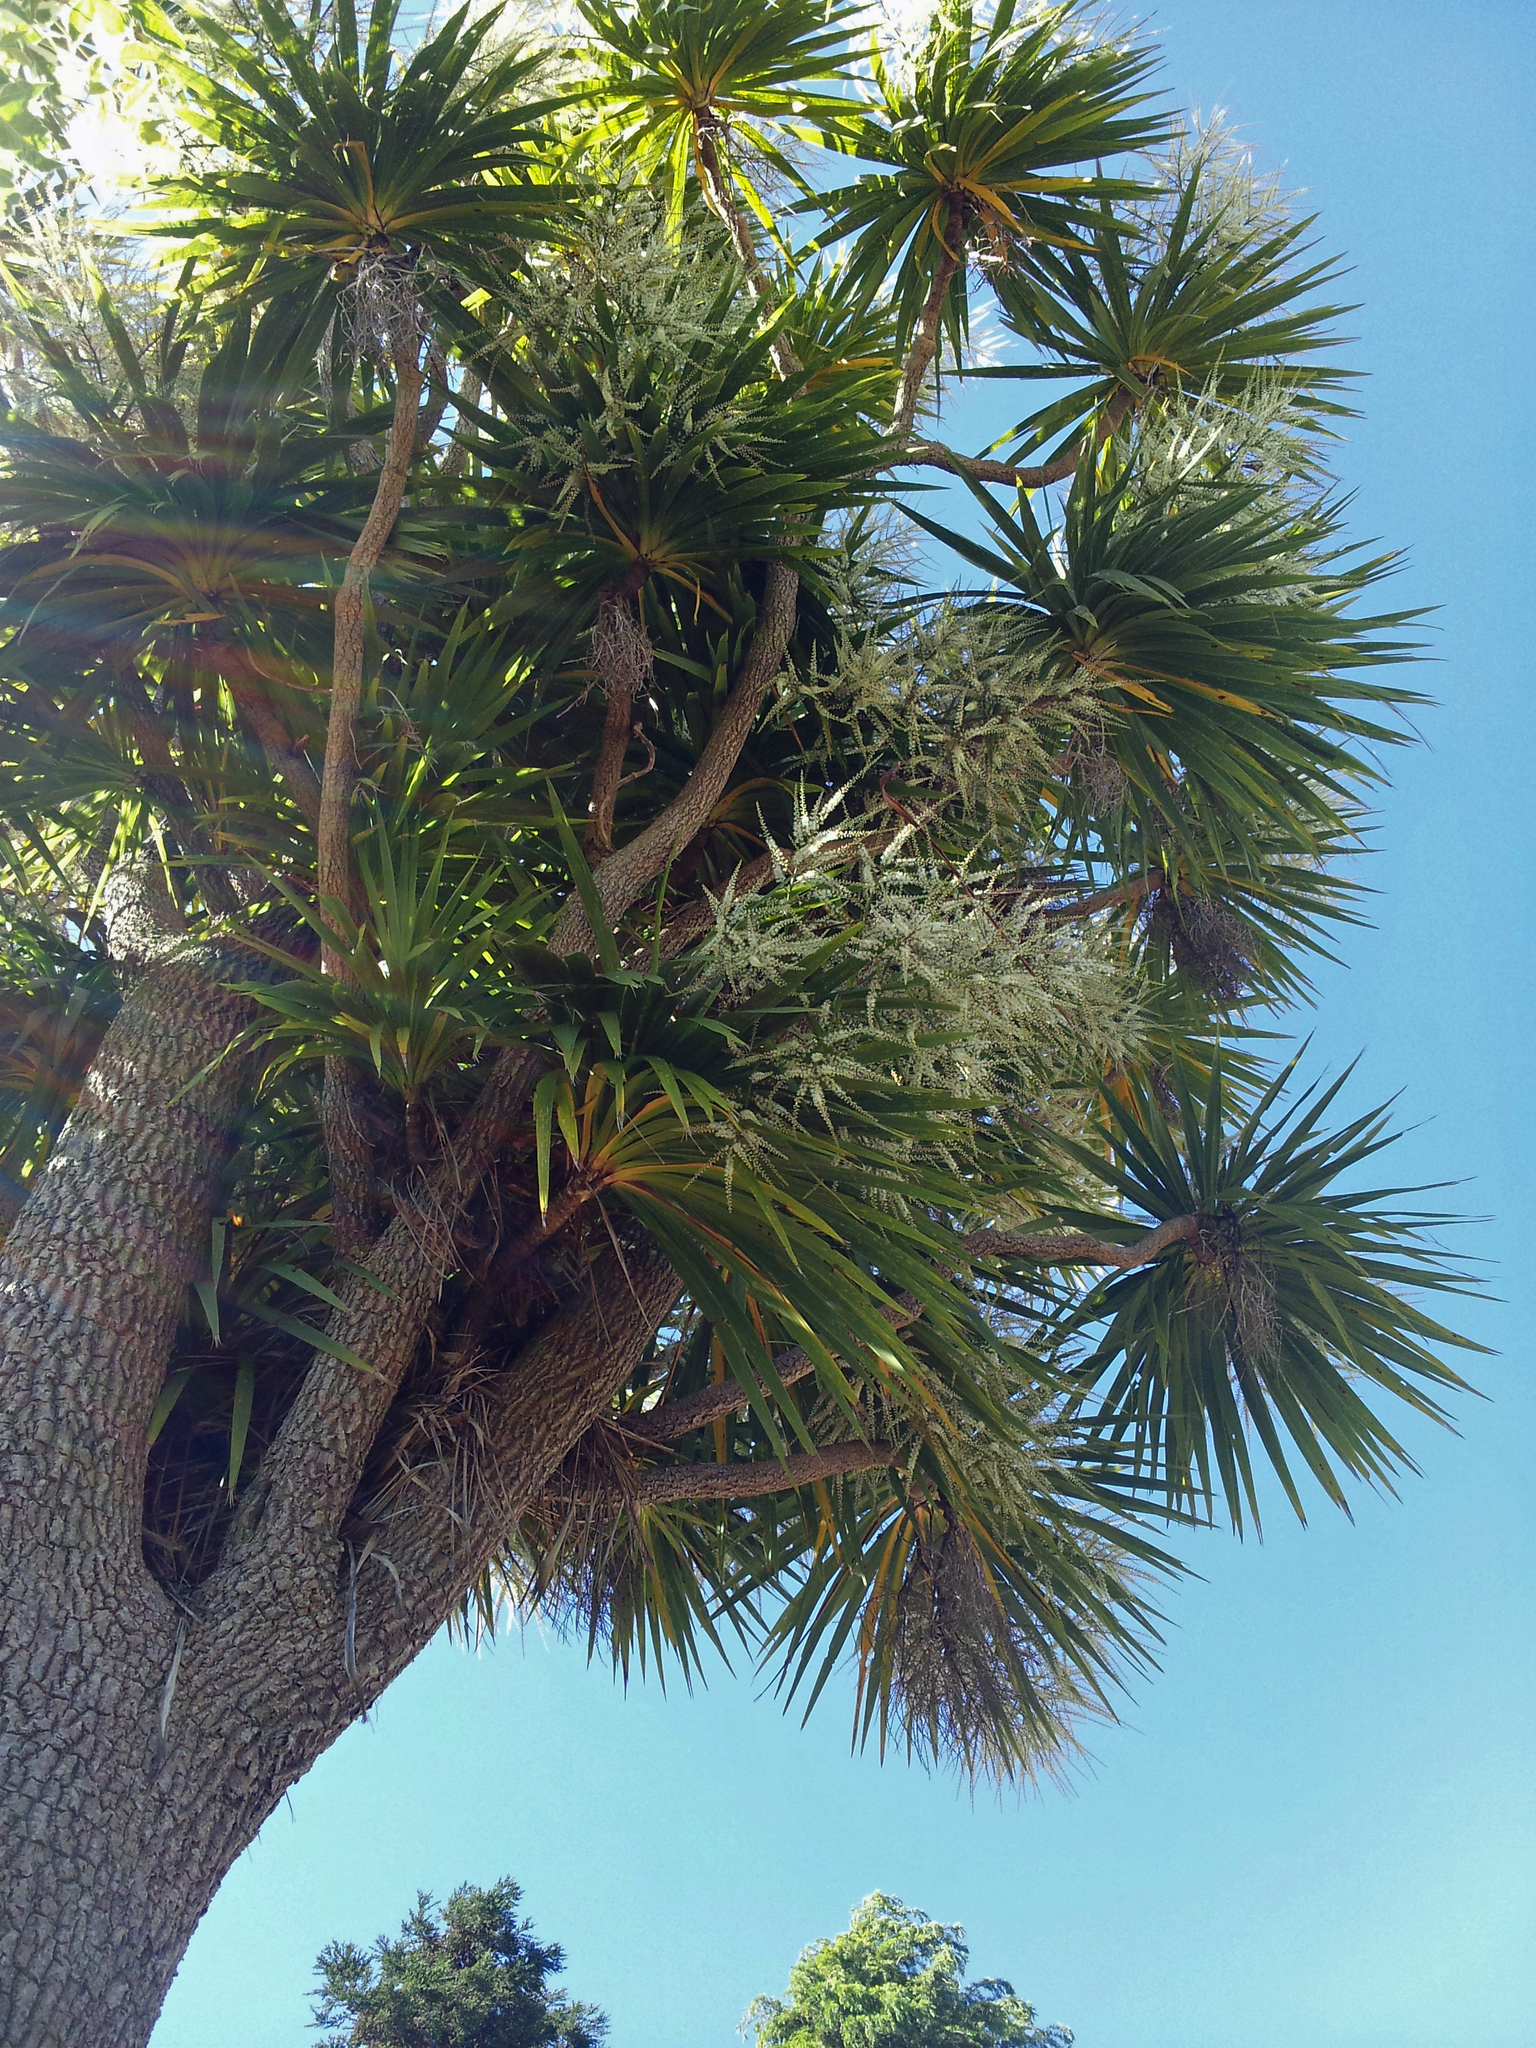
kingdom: Plantae
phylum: Tracheophyta
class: Liliopsida
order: Asparagales
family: Asparagaceae
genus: Cordyline
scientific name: Cordyline australis
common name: Cabbage-palm
